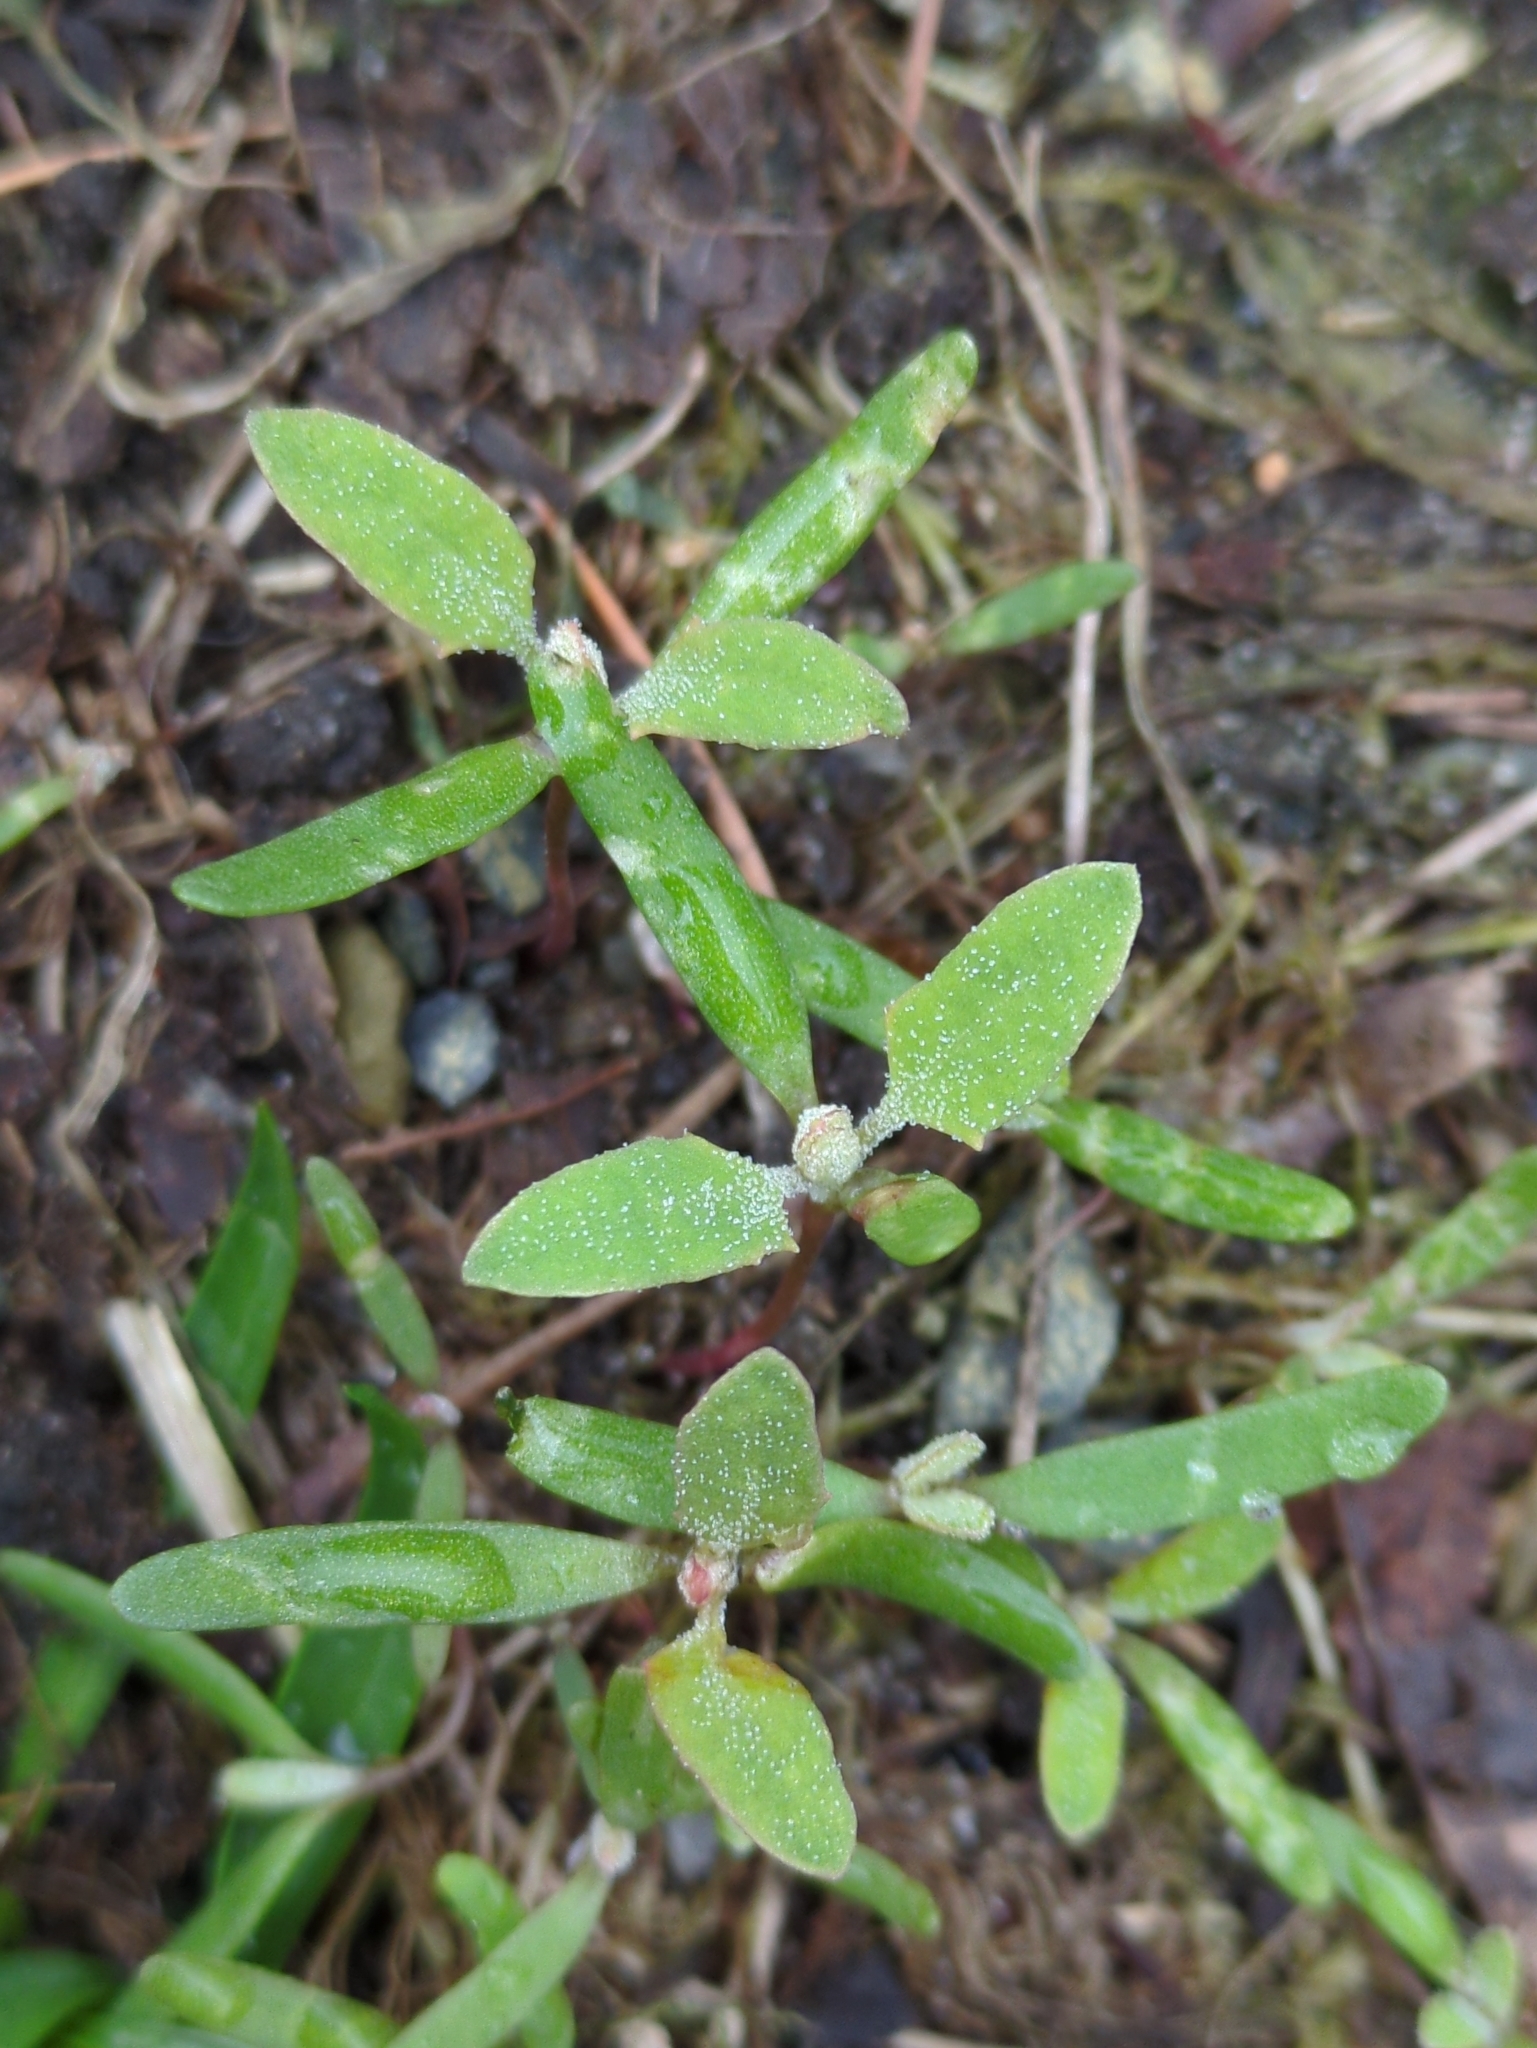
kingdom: Plantae
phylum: Tracheophyta
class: Magnoliopsida
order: Caryophyllales
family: Amaranthaceae
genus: Chenopodium
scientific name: Chenopodium album
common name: Fat-hen
